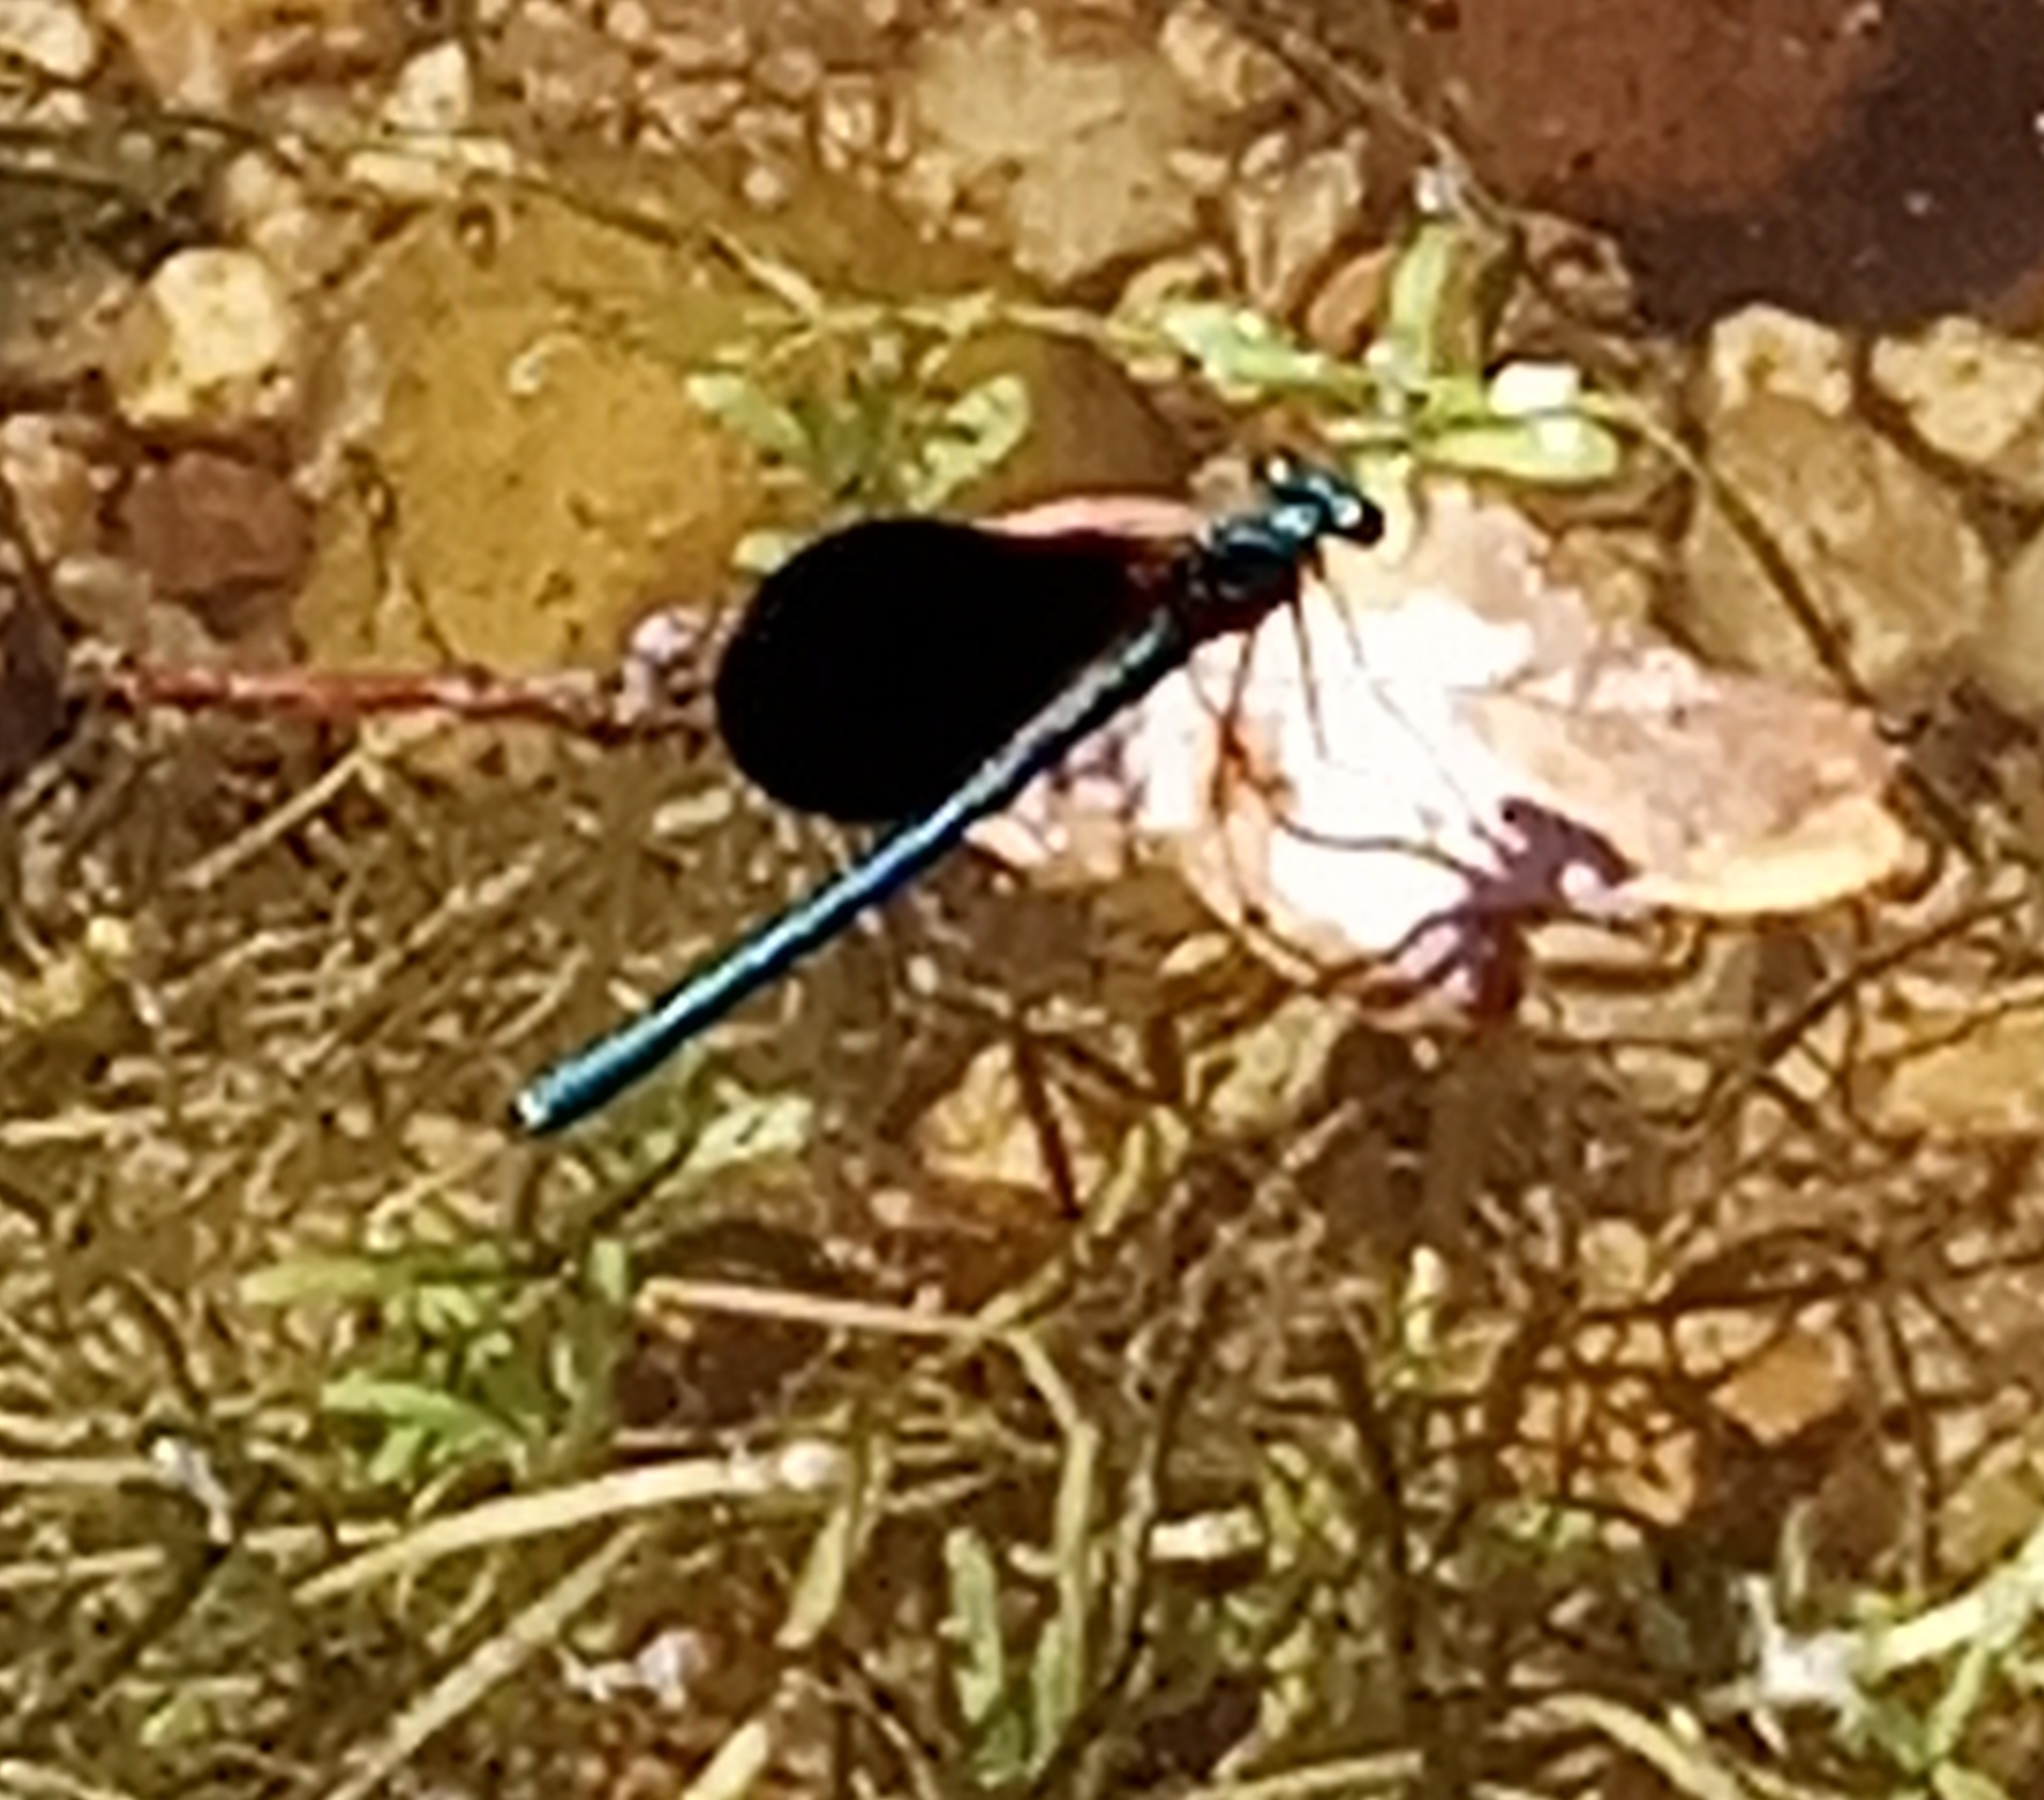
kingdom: Animalia
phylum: Arthropoda
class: Insecta
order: Odonata
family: Calopterygidae
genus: Calopteryx
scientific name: Calopteryx virgo
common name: Beautiful demoiselle
